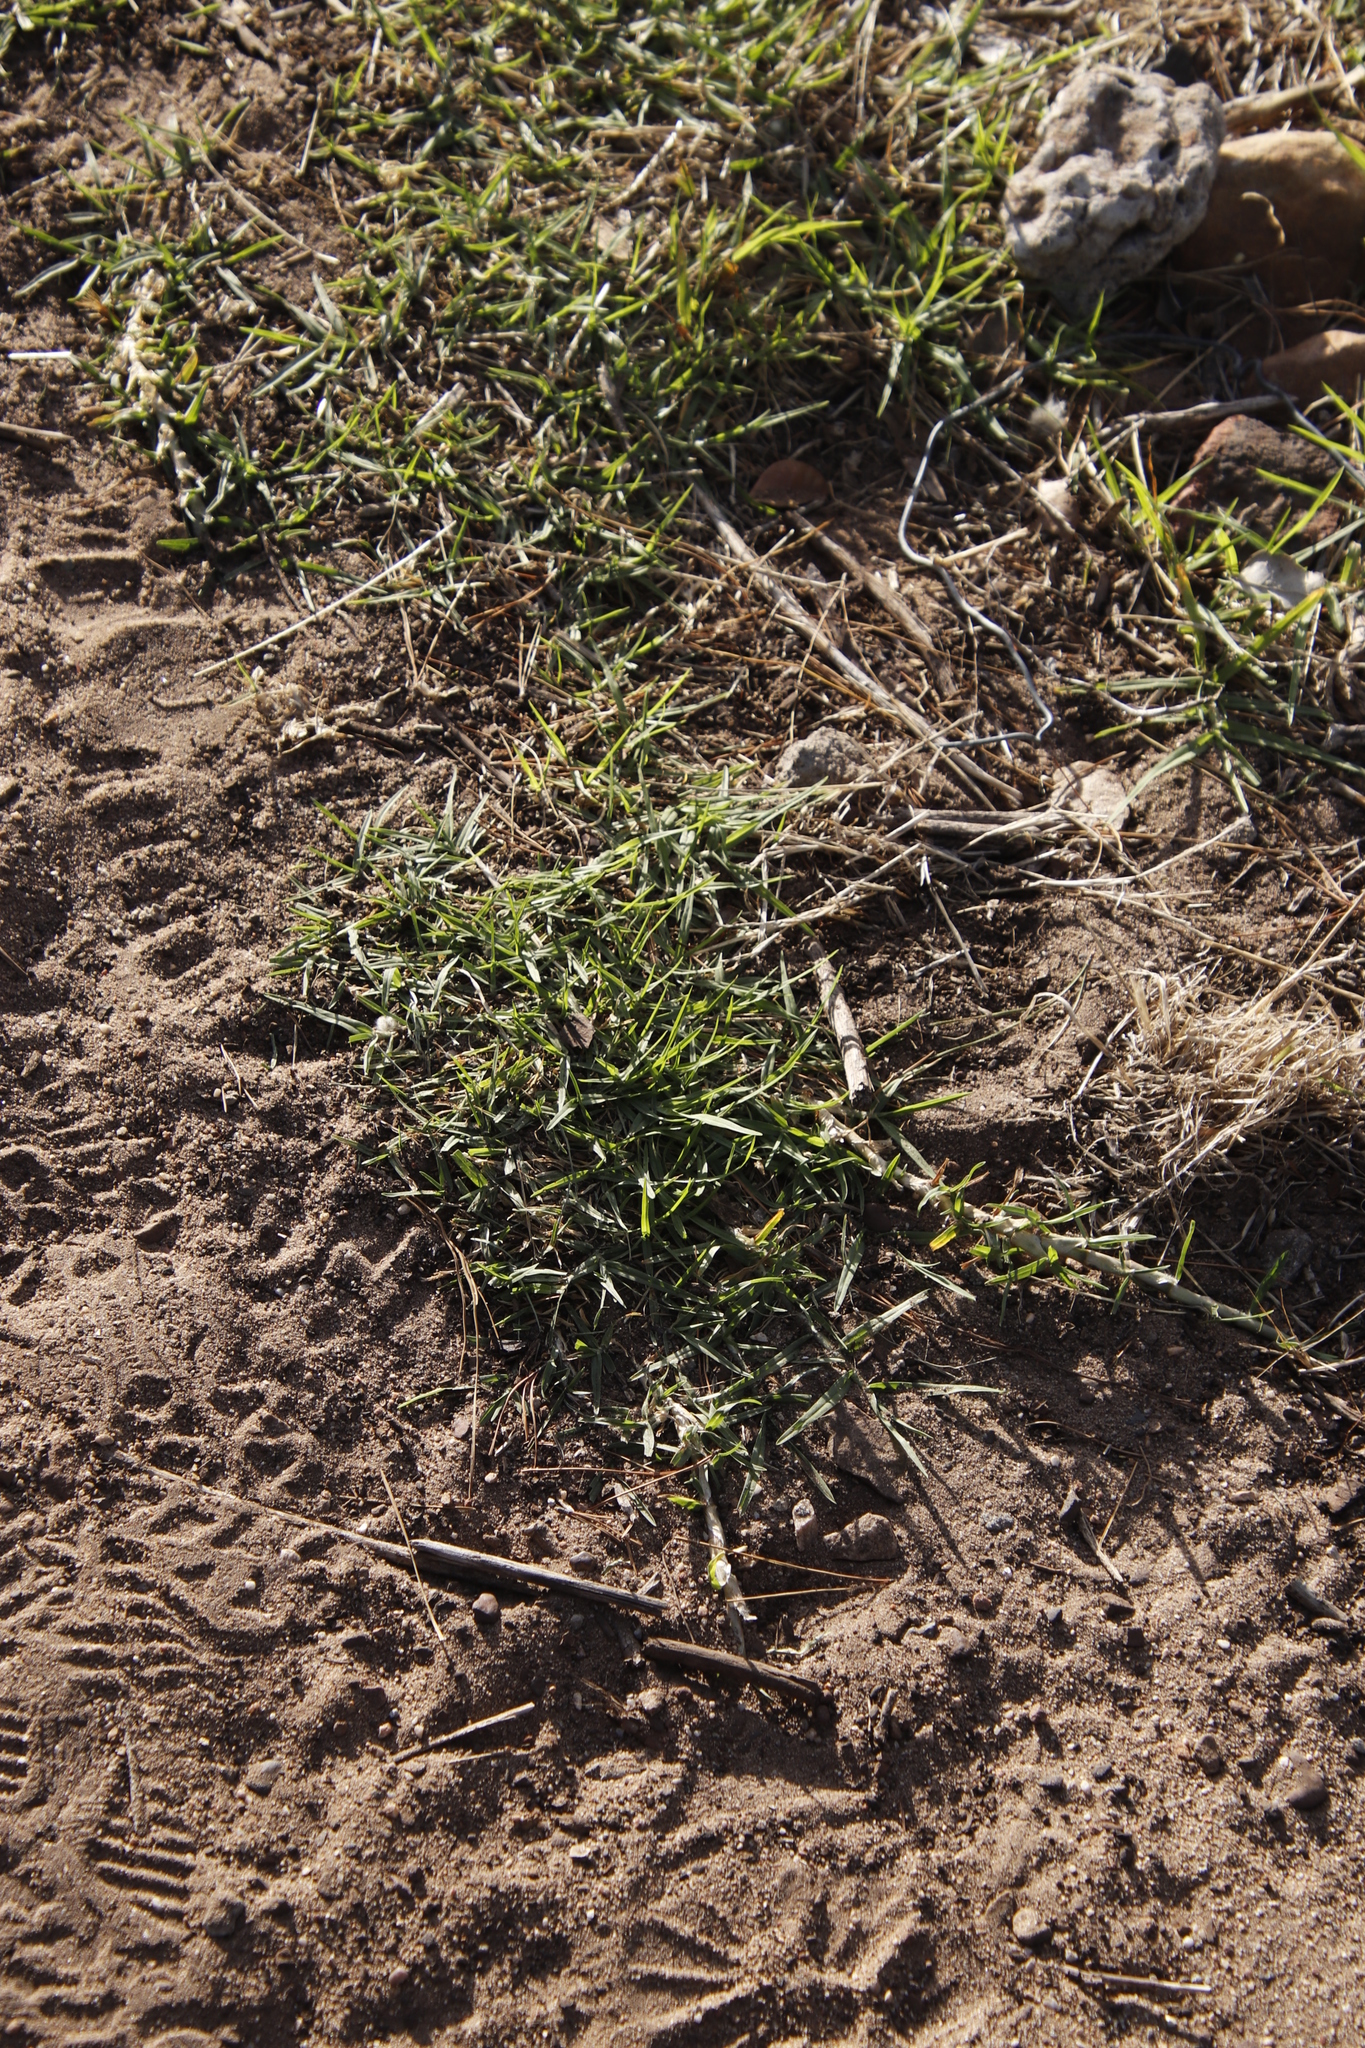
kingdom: Plantae
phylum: Tracheophyta
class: Liliopsida
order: Poales
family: Poaceae
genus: Cenchrus
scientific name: Cenchrus clandestinus
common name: Kikuyugrass
